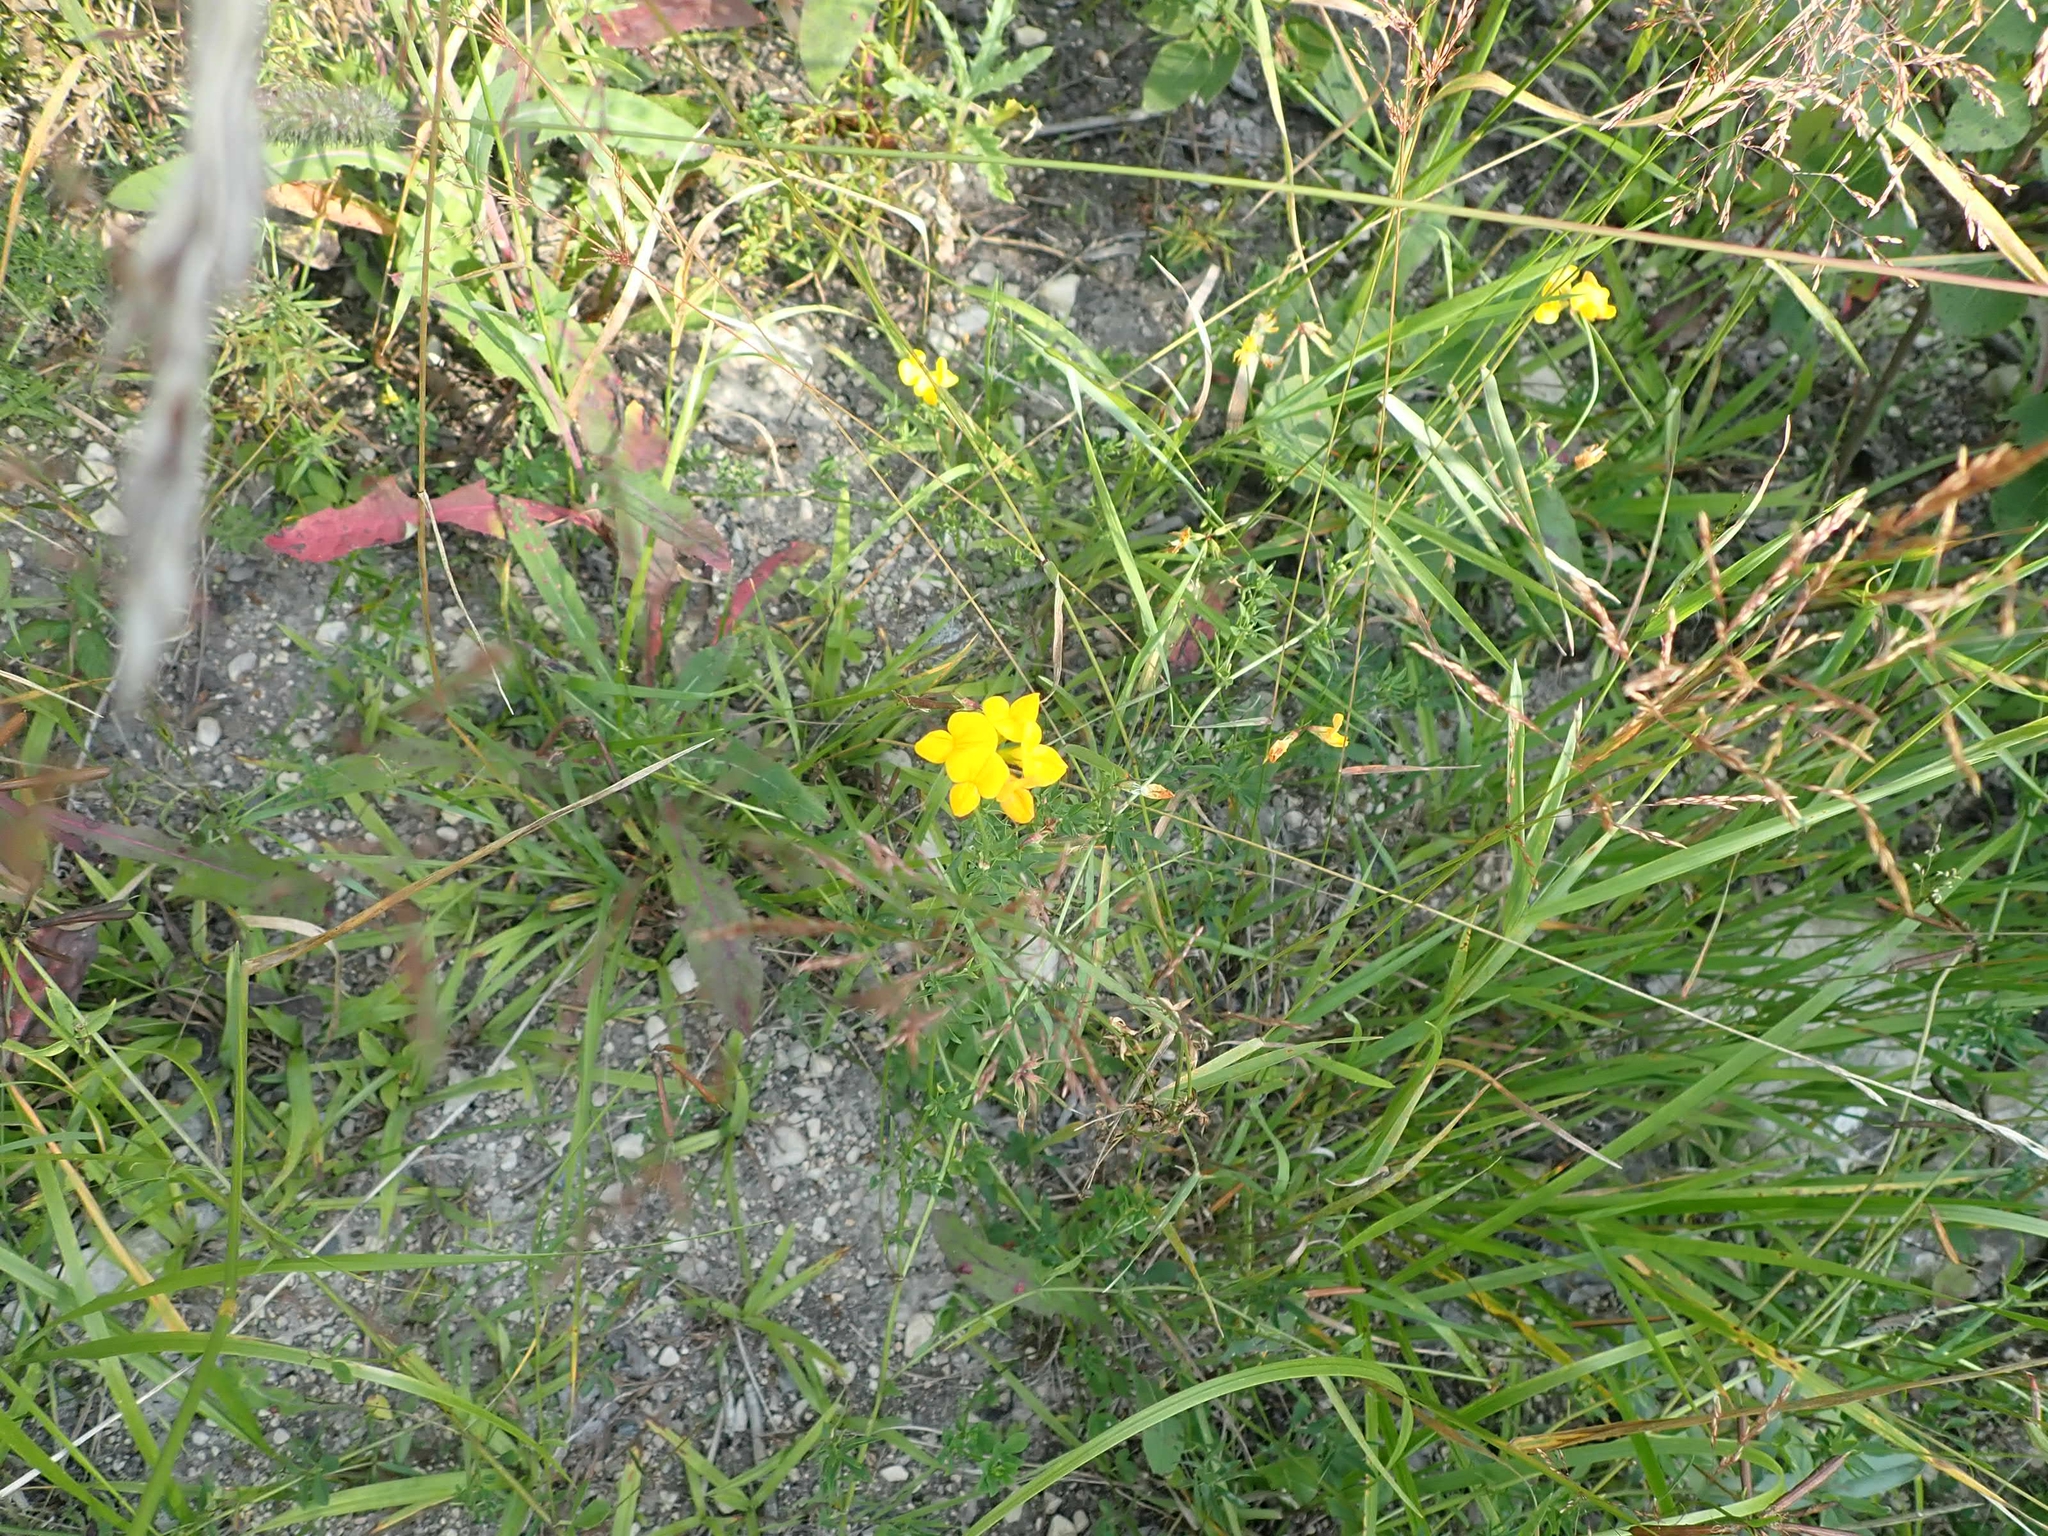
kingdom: Plantae
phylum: Tracheophyta
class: Magnoliopsida
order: Fabales
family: Fabaceae
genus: Lotus
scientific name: Lotus corniculatus
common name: Common bird's-foot-trefoil
